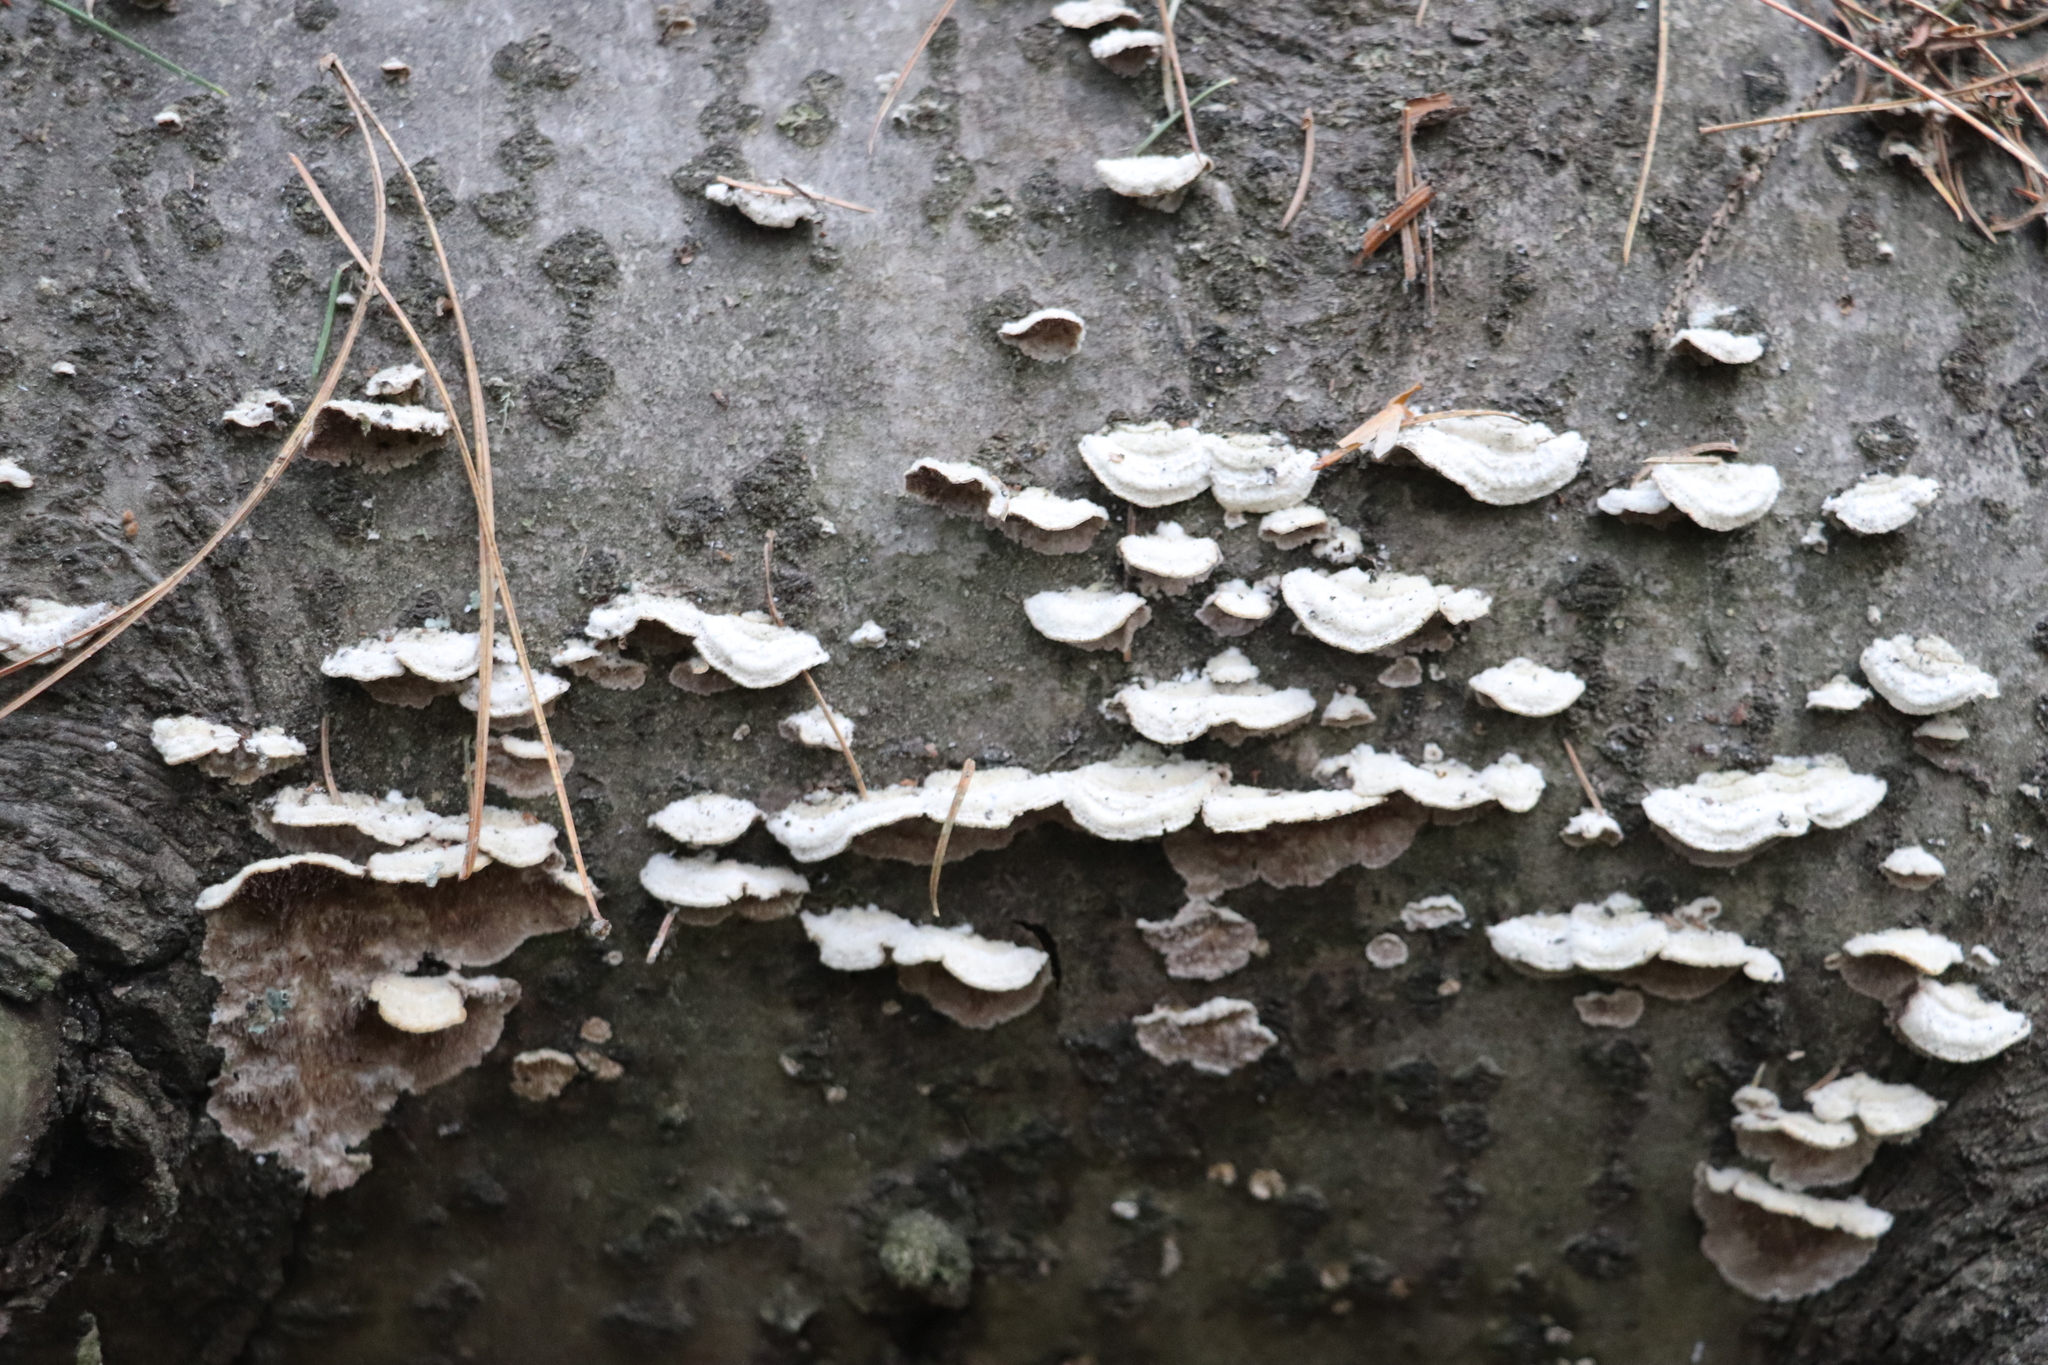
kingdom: Fungi
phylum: Basidiomycota
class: Agaricomycetes
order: Hymenochaetales
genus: Trichaptum
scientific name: Trichaptum fuscoviolaceum
